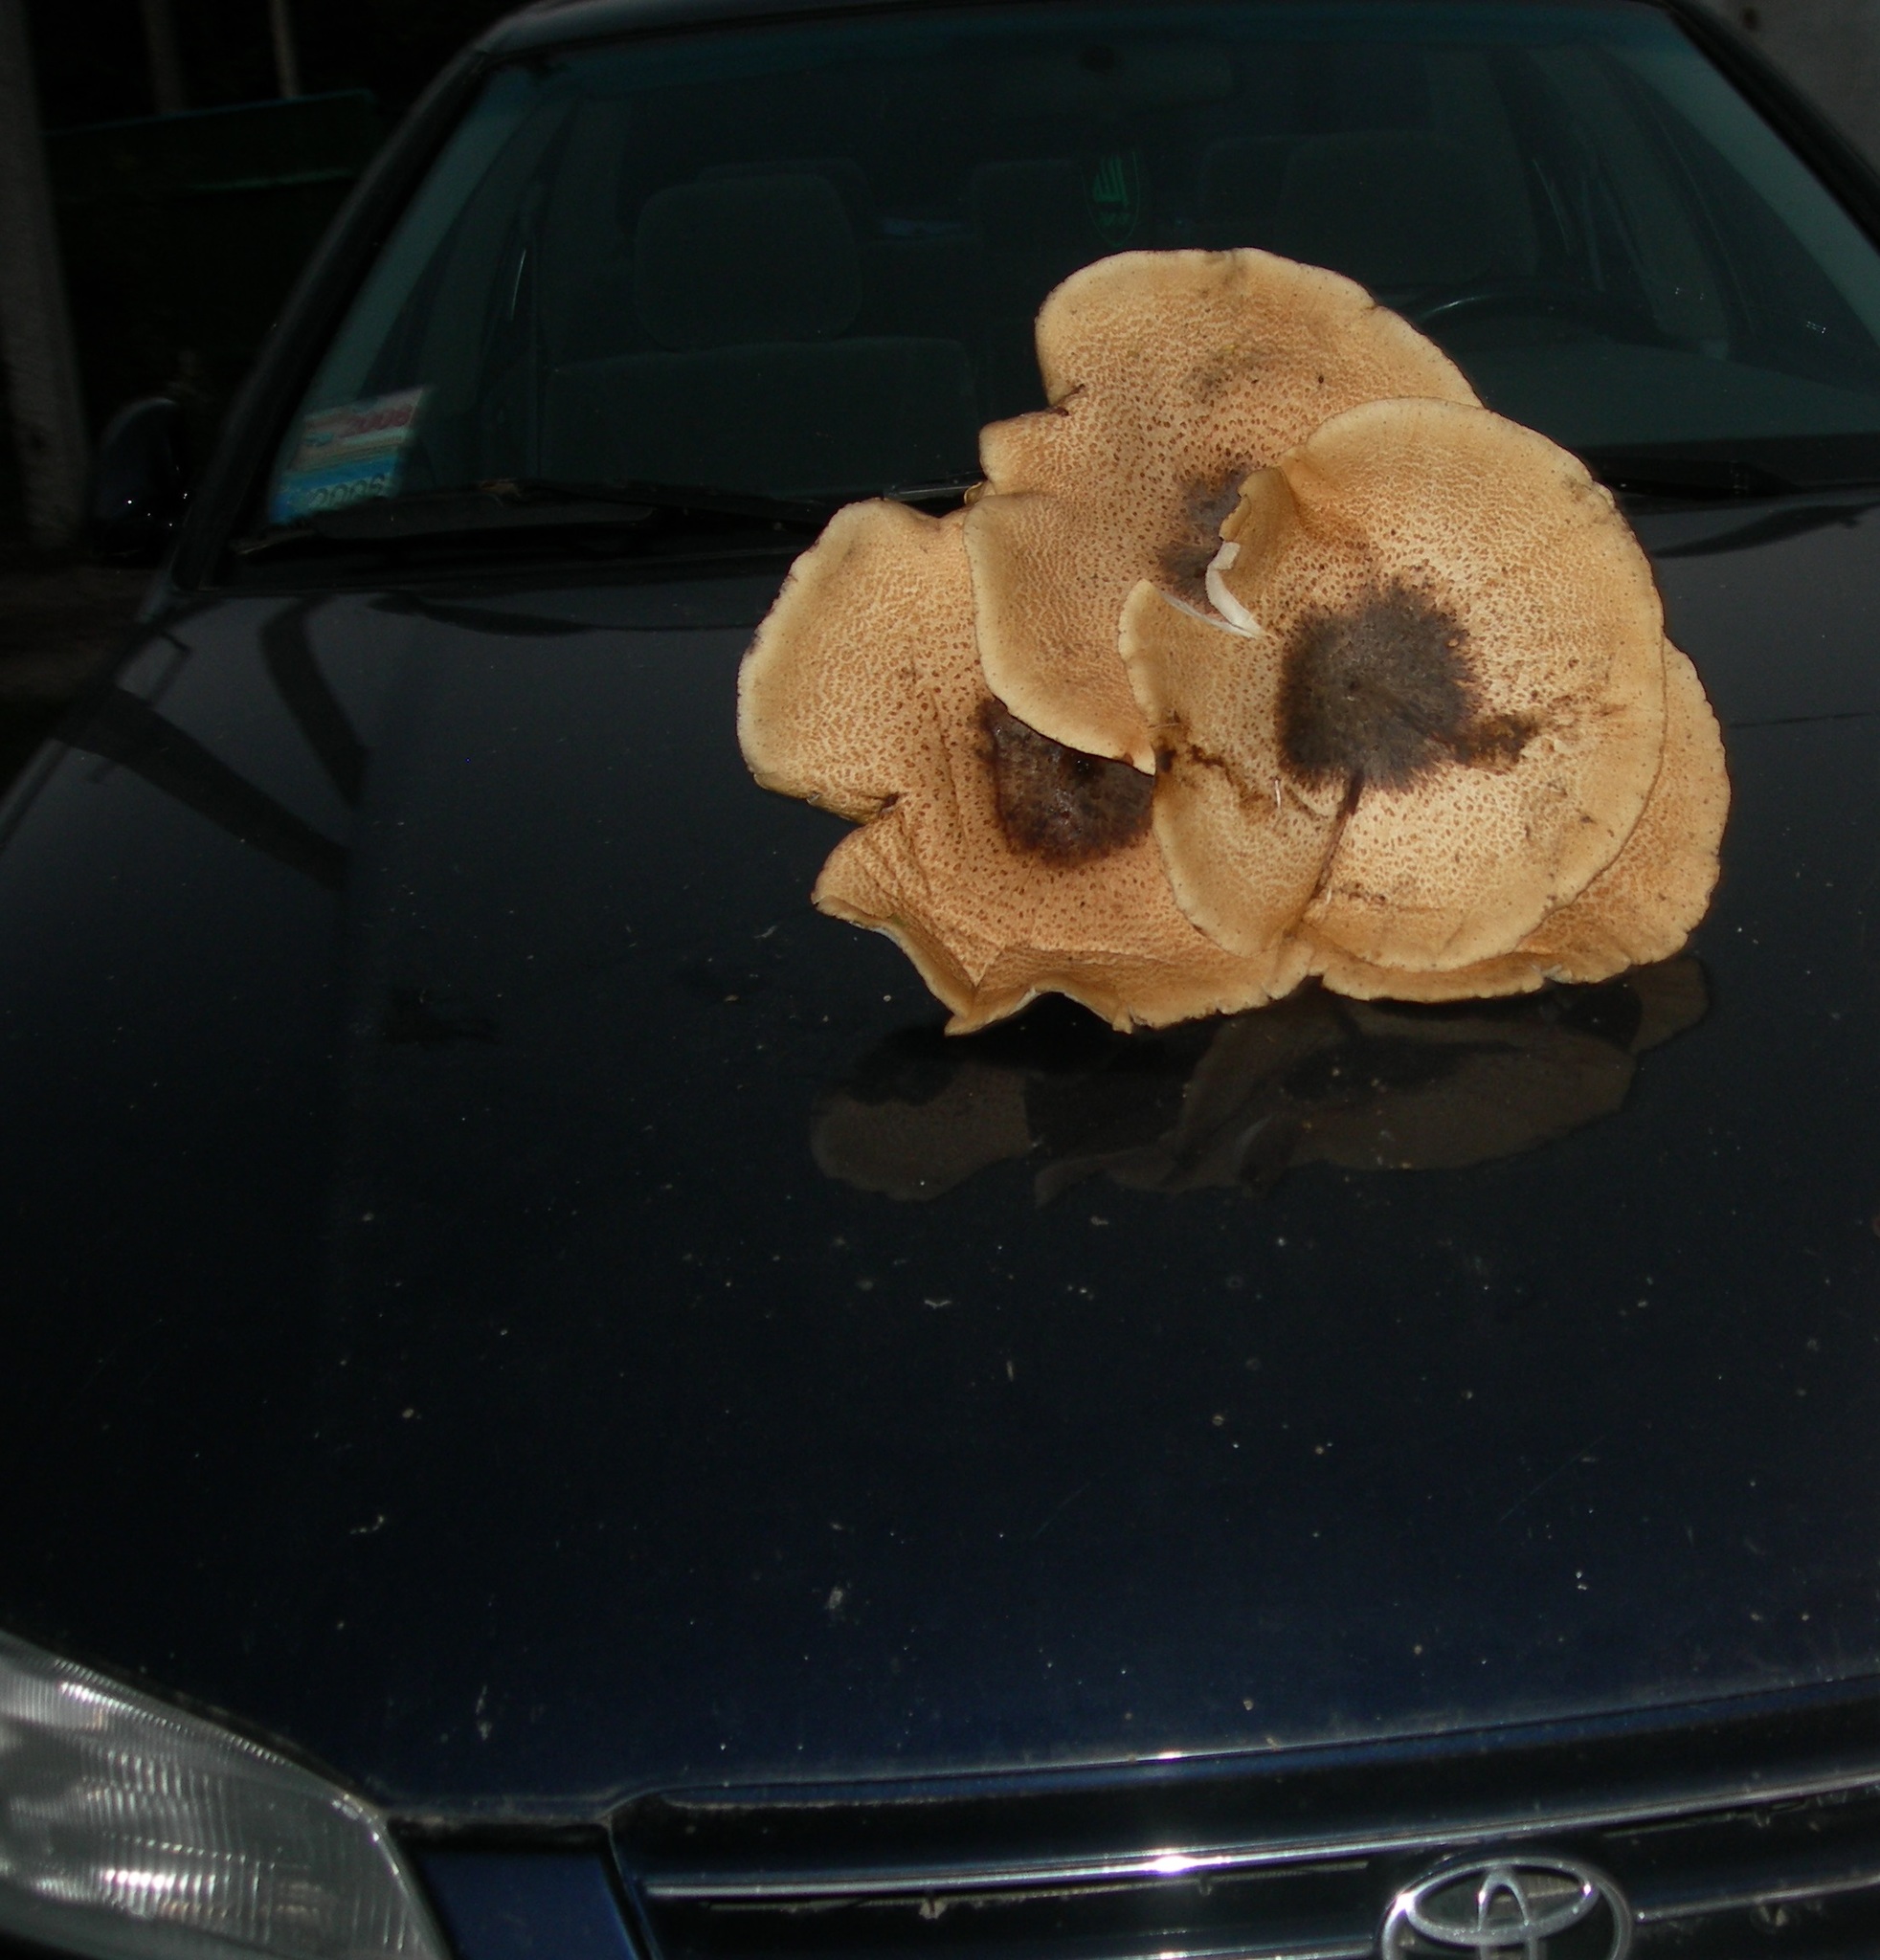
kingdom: Fungi
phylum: Basidiomycota
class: Agaricomycetes
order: Polyporales
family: Polyporaceae
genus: Cerioporus
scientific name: Cerioporus squamosus
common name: Dryad's saddle
